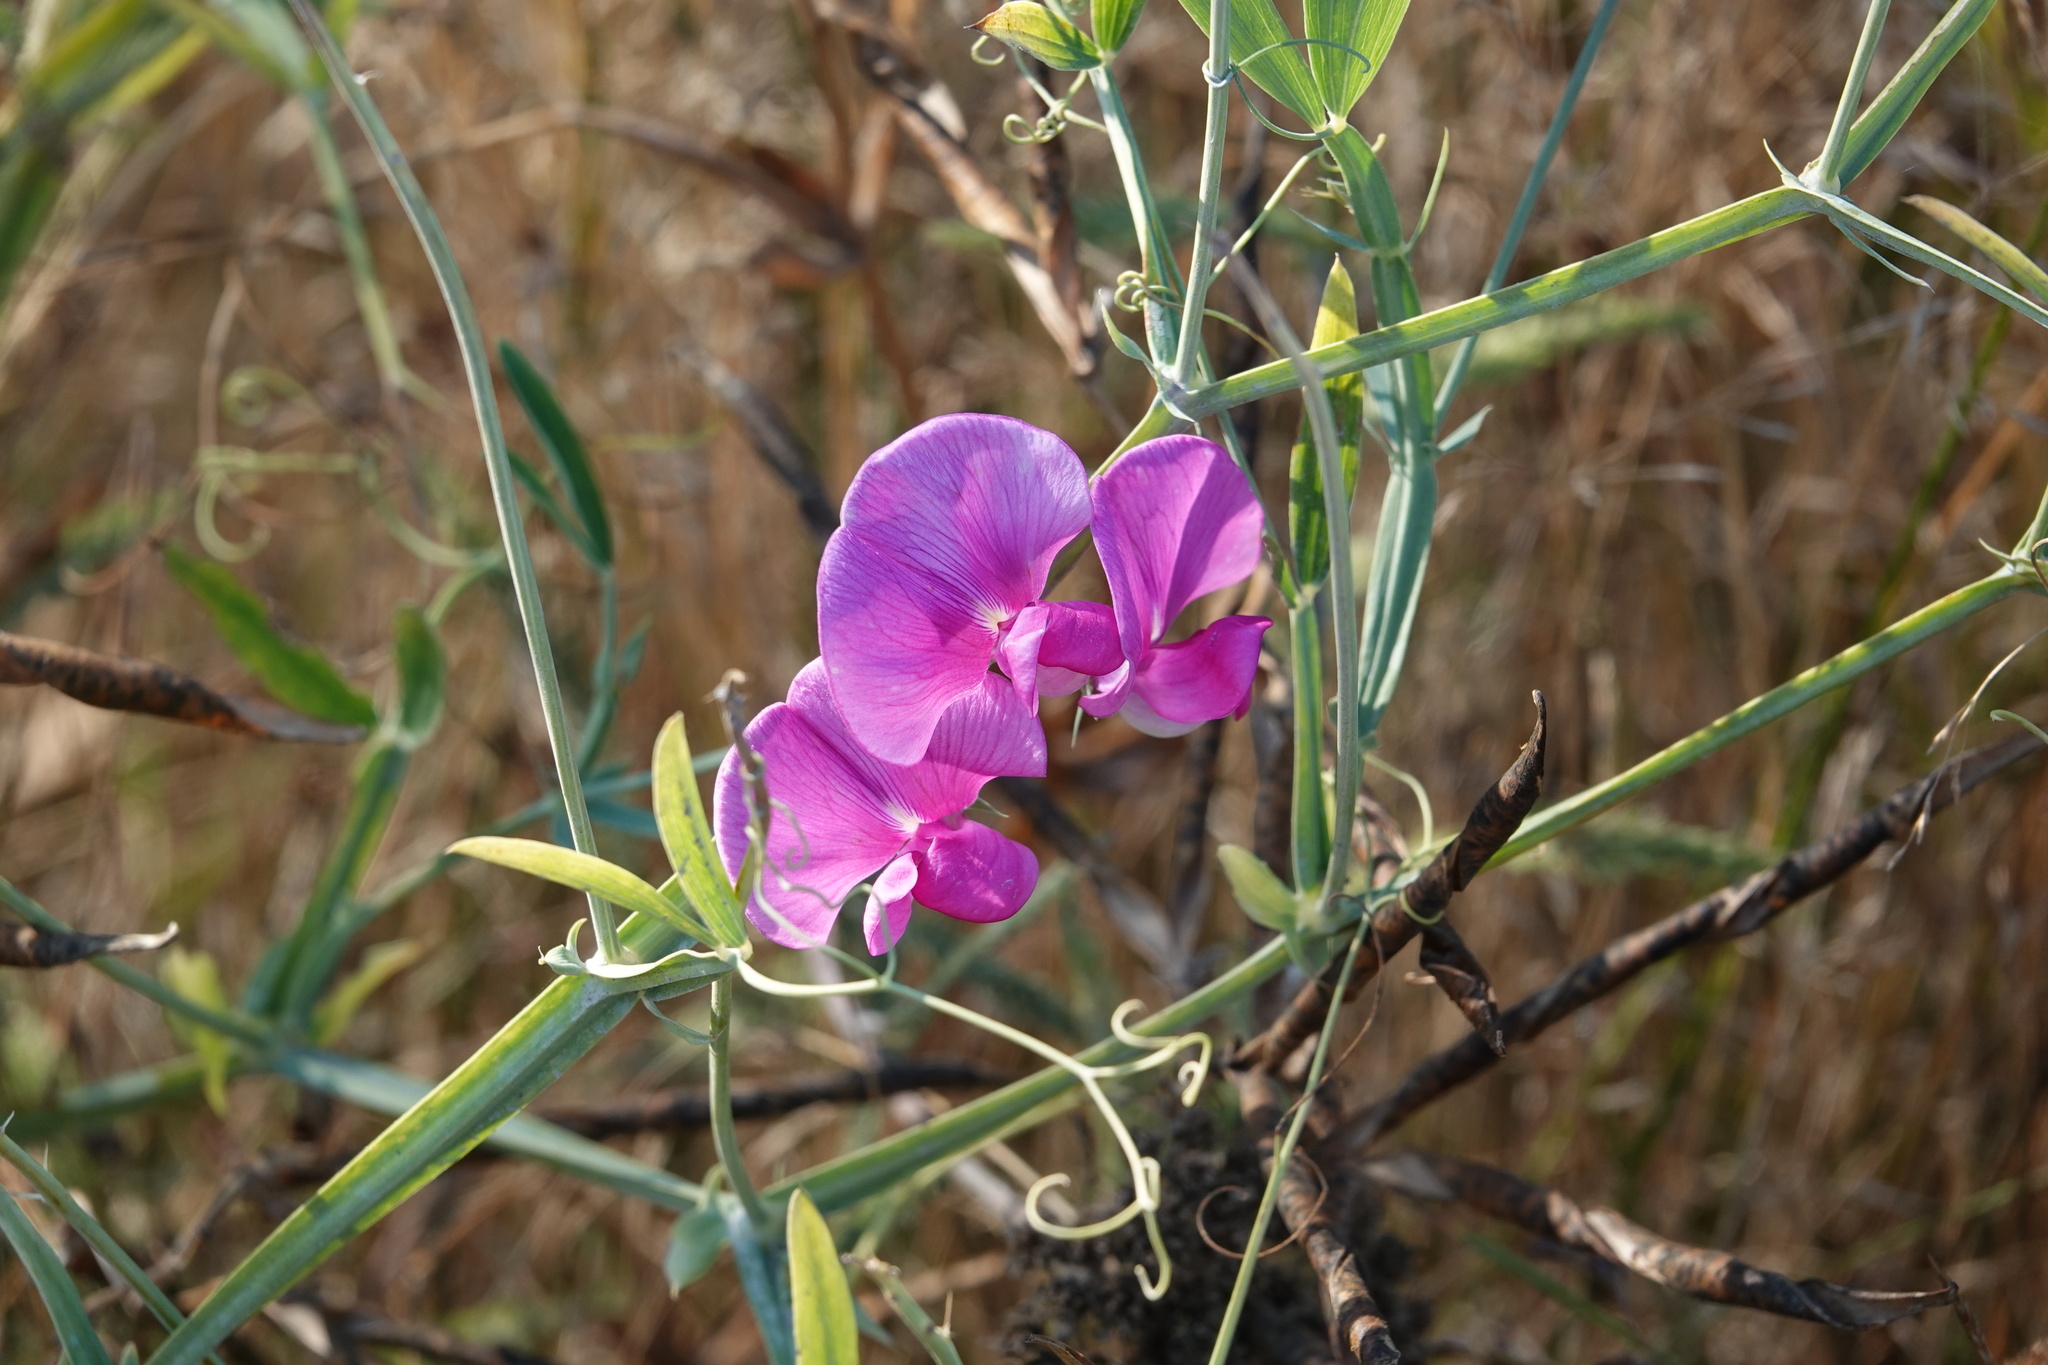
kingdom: Plantae
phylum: Tracheophyta
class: Magnoliopsida
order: Fabales
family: Fabaceae
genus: Lathyrus
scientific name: Lathyrus latifolius
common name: Perennial pea
